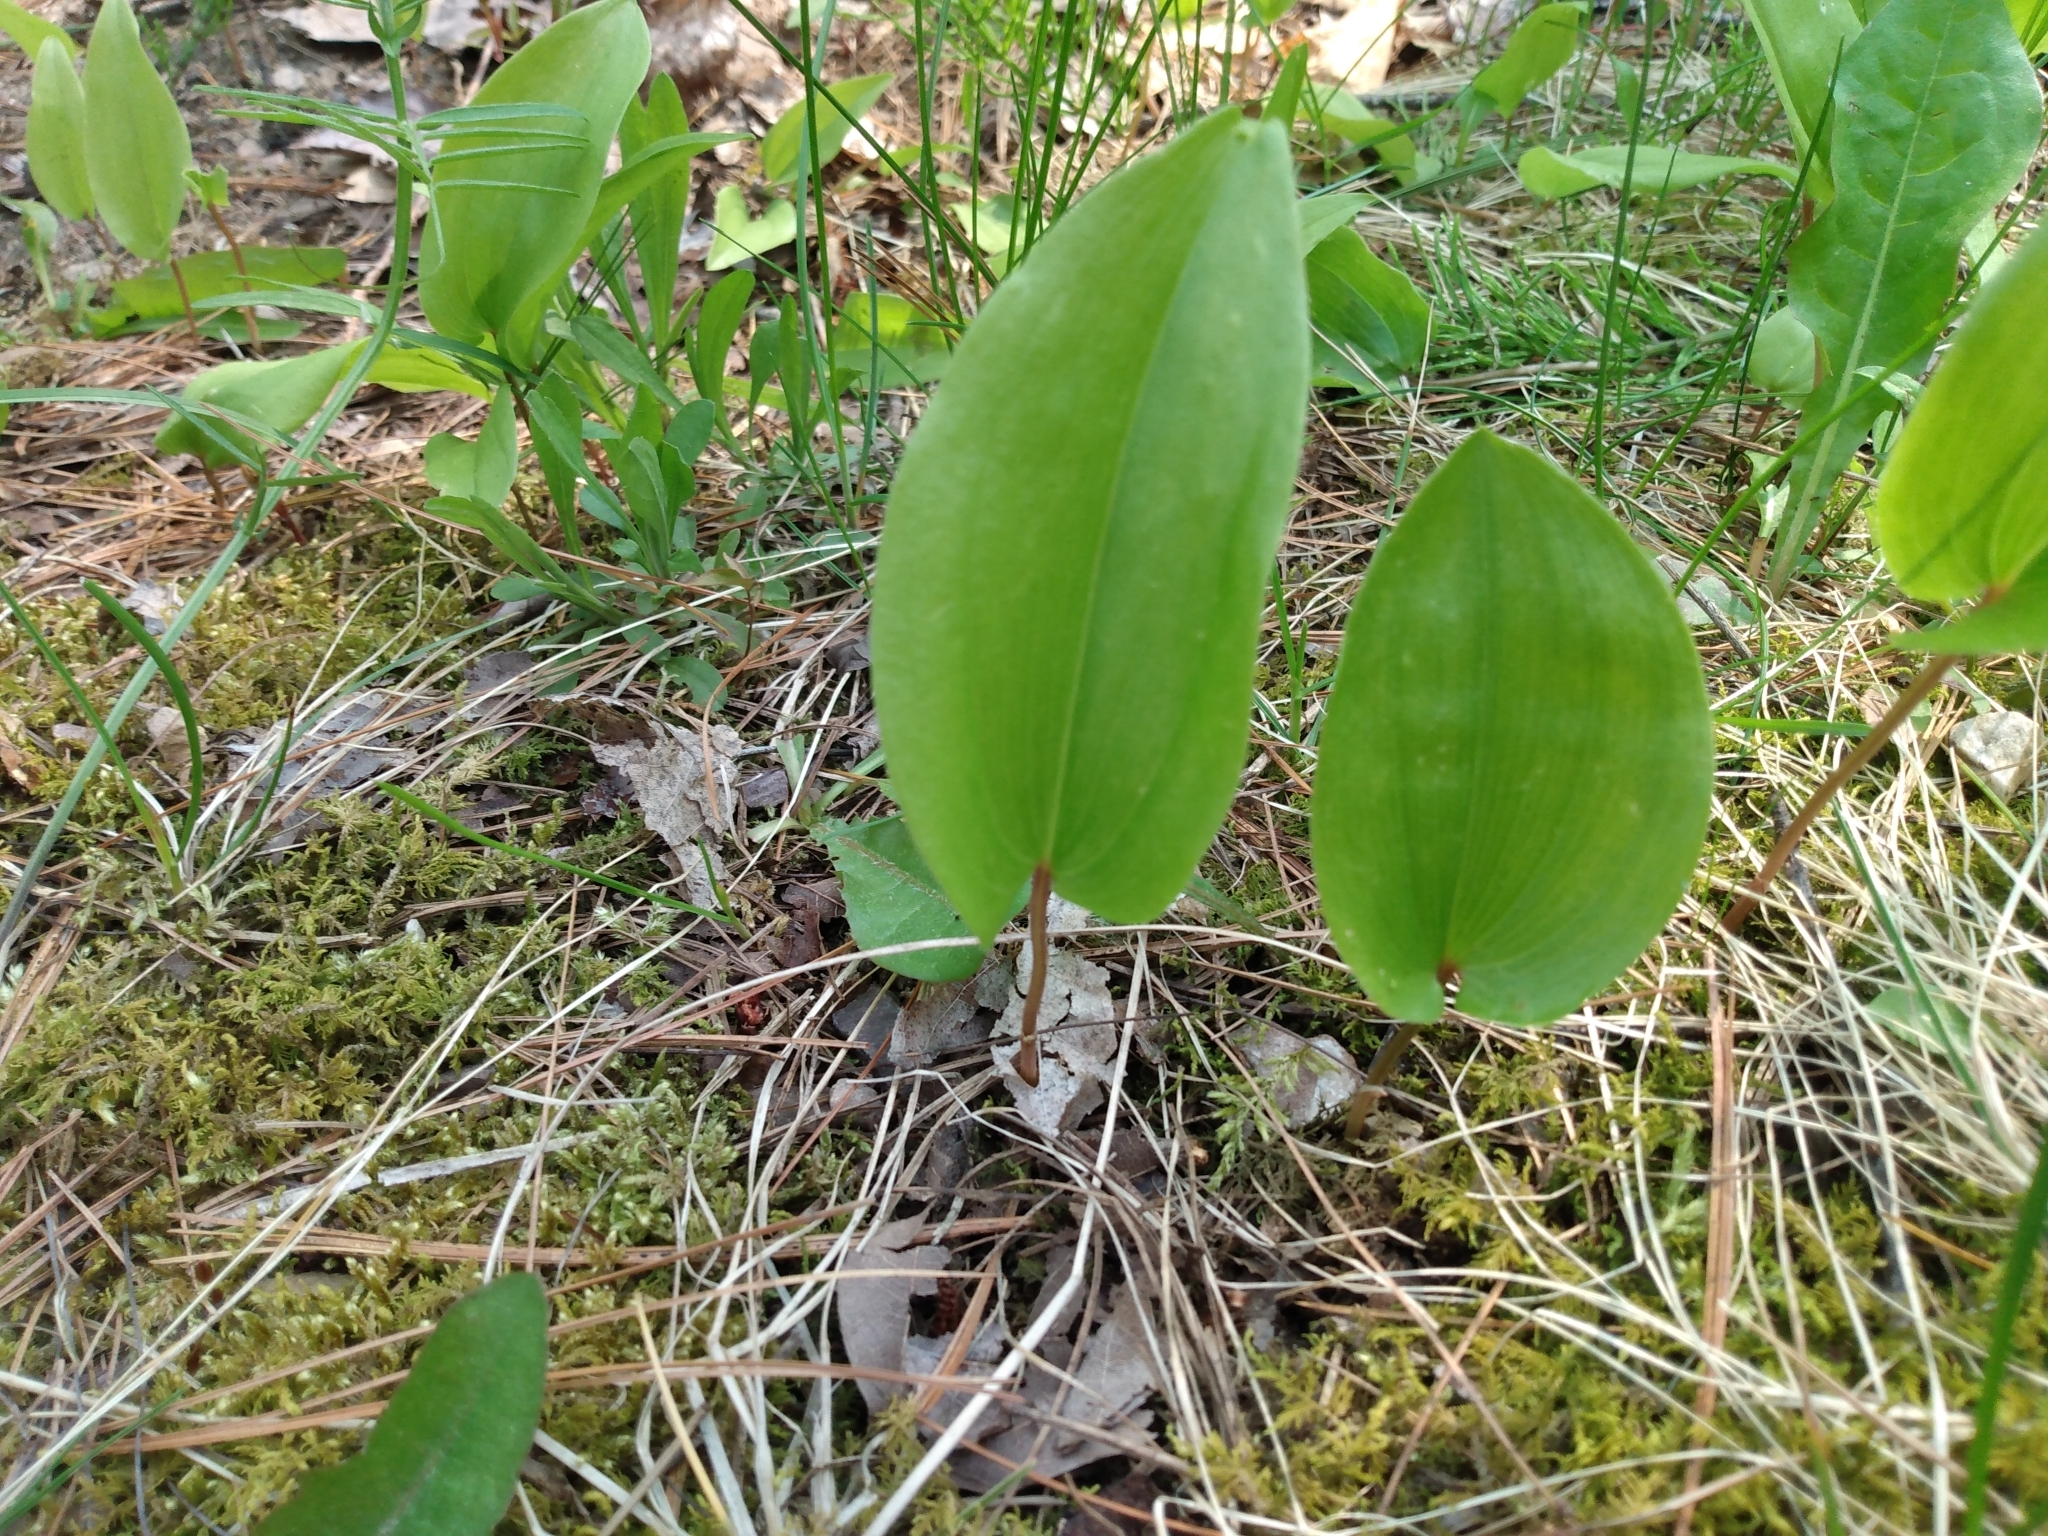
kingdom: Plantae
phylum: Tracheophyta
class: Liliopsida
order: Asparagales
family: Asparagaceae
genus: Maianthemum
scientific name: Maianthemum canadense
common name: False lily-of-the-valley
